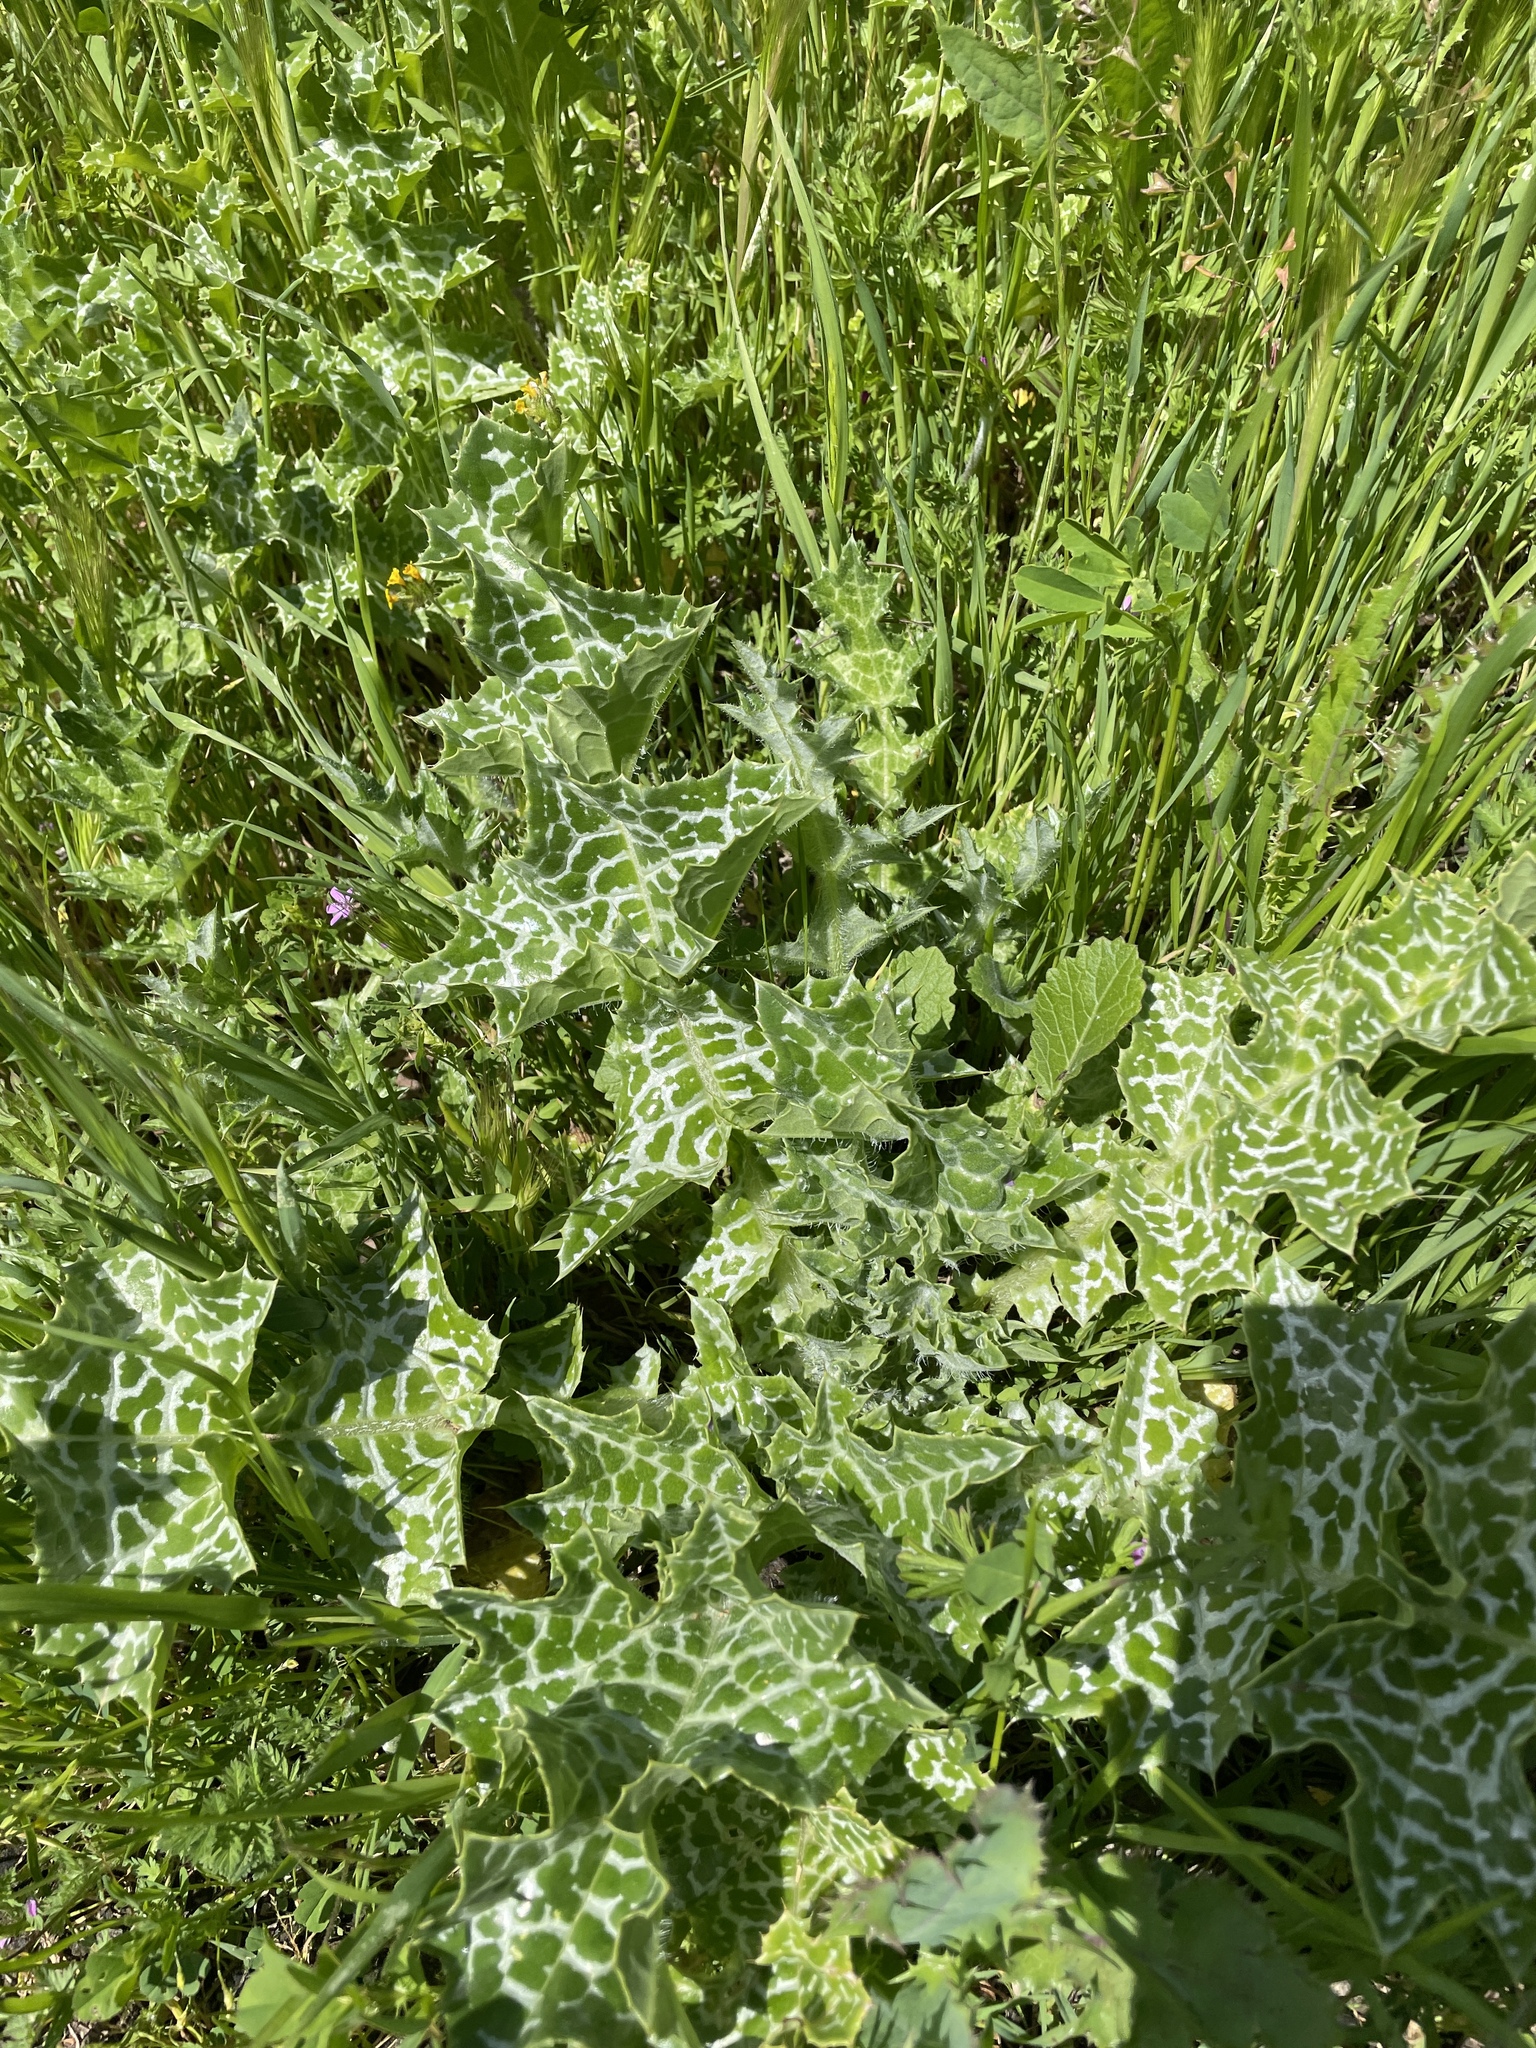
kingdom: Plantae
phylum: Tracheophyta
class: Magnoliopsida
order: Asterales
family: Asteraceae
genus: Silybum
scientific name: Silybum marianum
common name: Milk thistle
